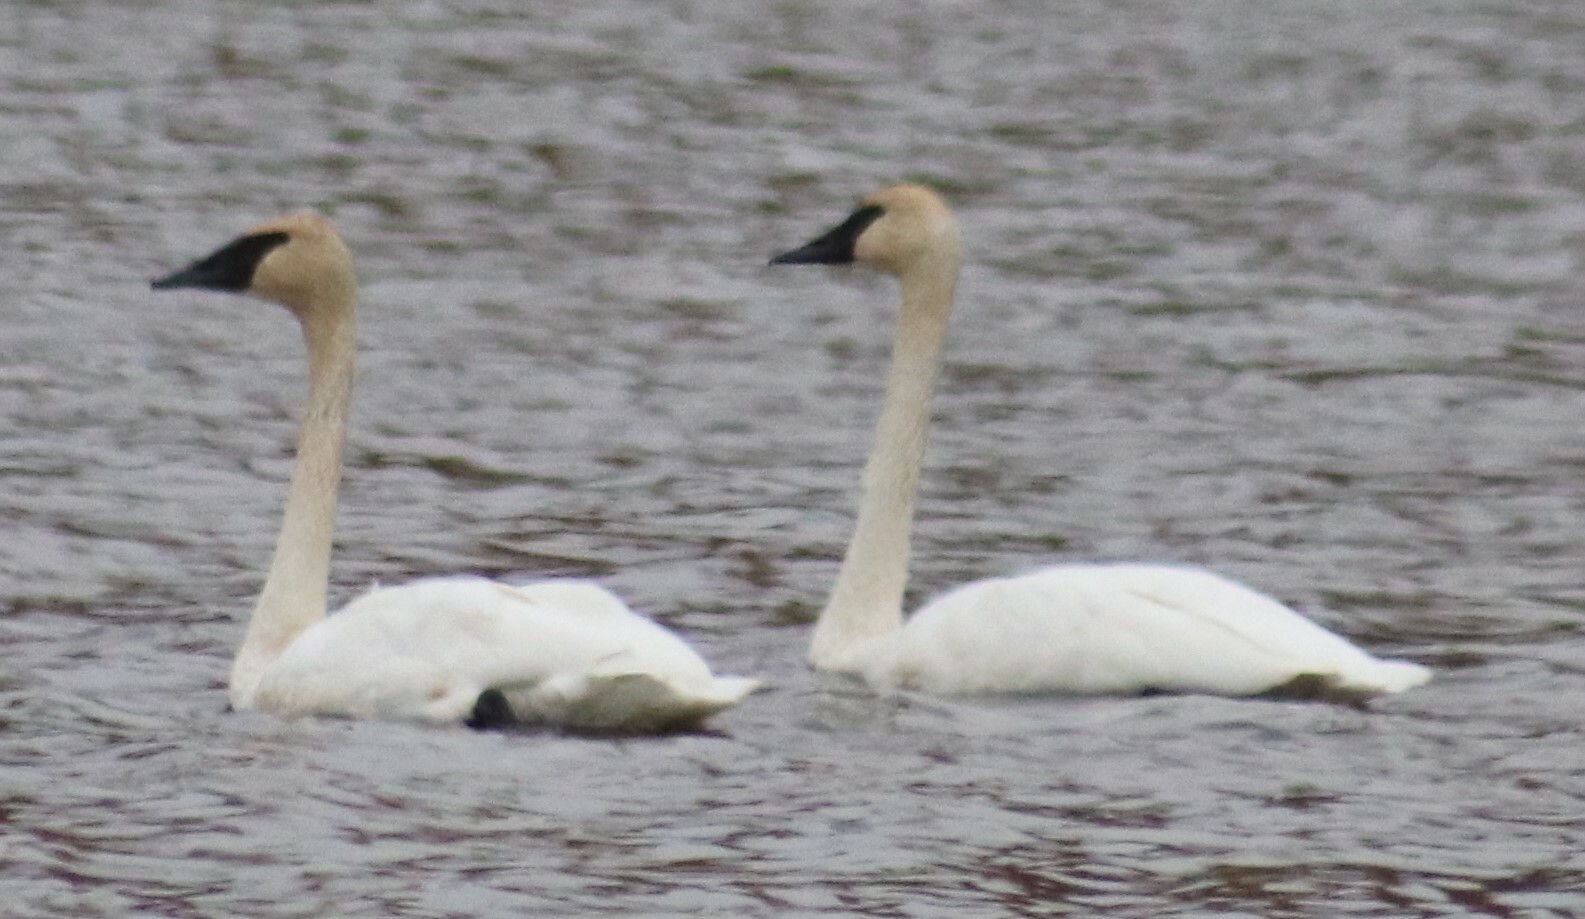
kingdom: Animalia
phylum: Chordata
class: Aves
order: Anseriformes
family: Anatidae
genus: Cygnus
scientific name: Cygnus buccinator
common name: Trumpeter swan
